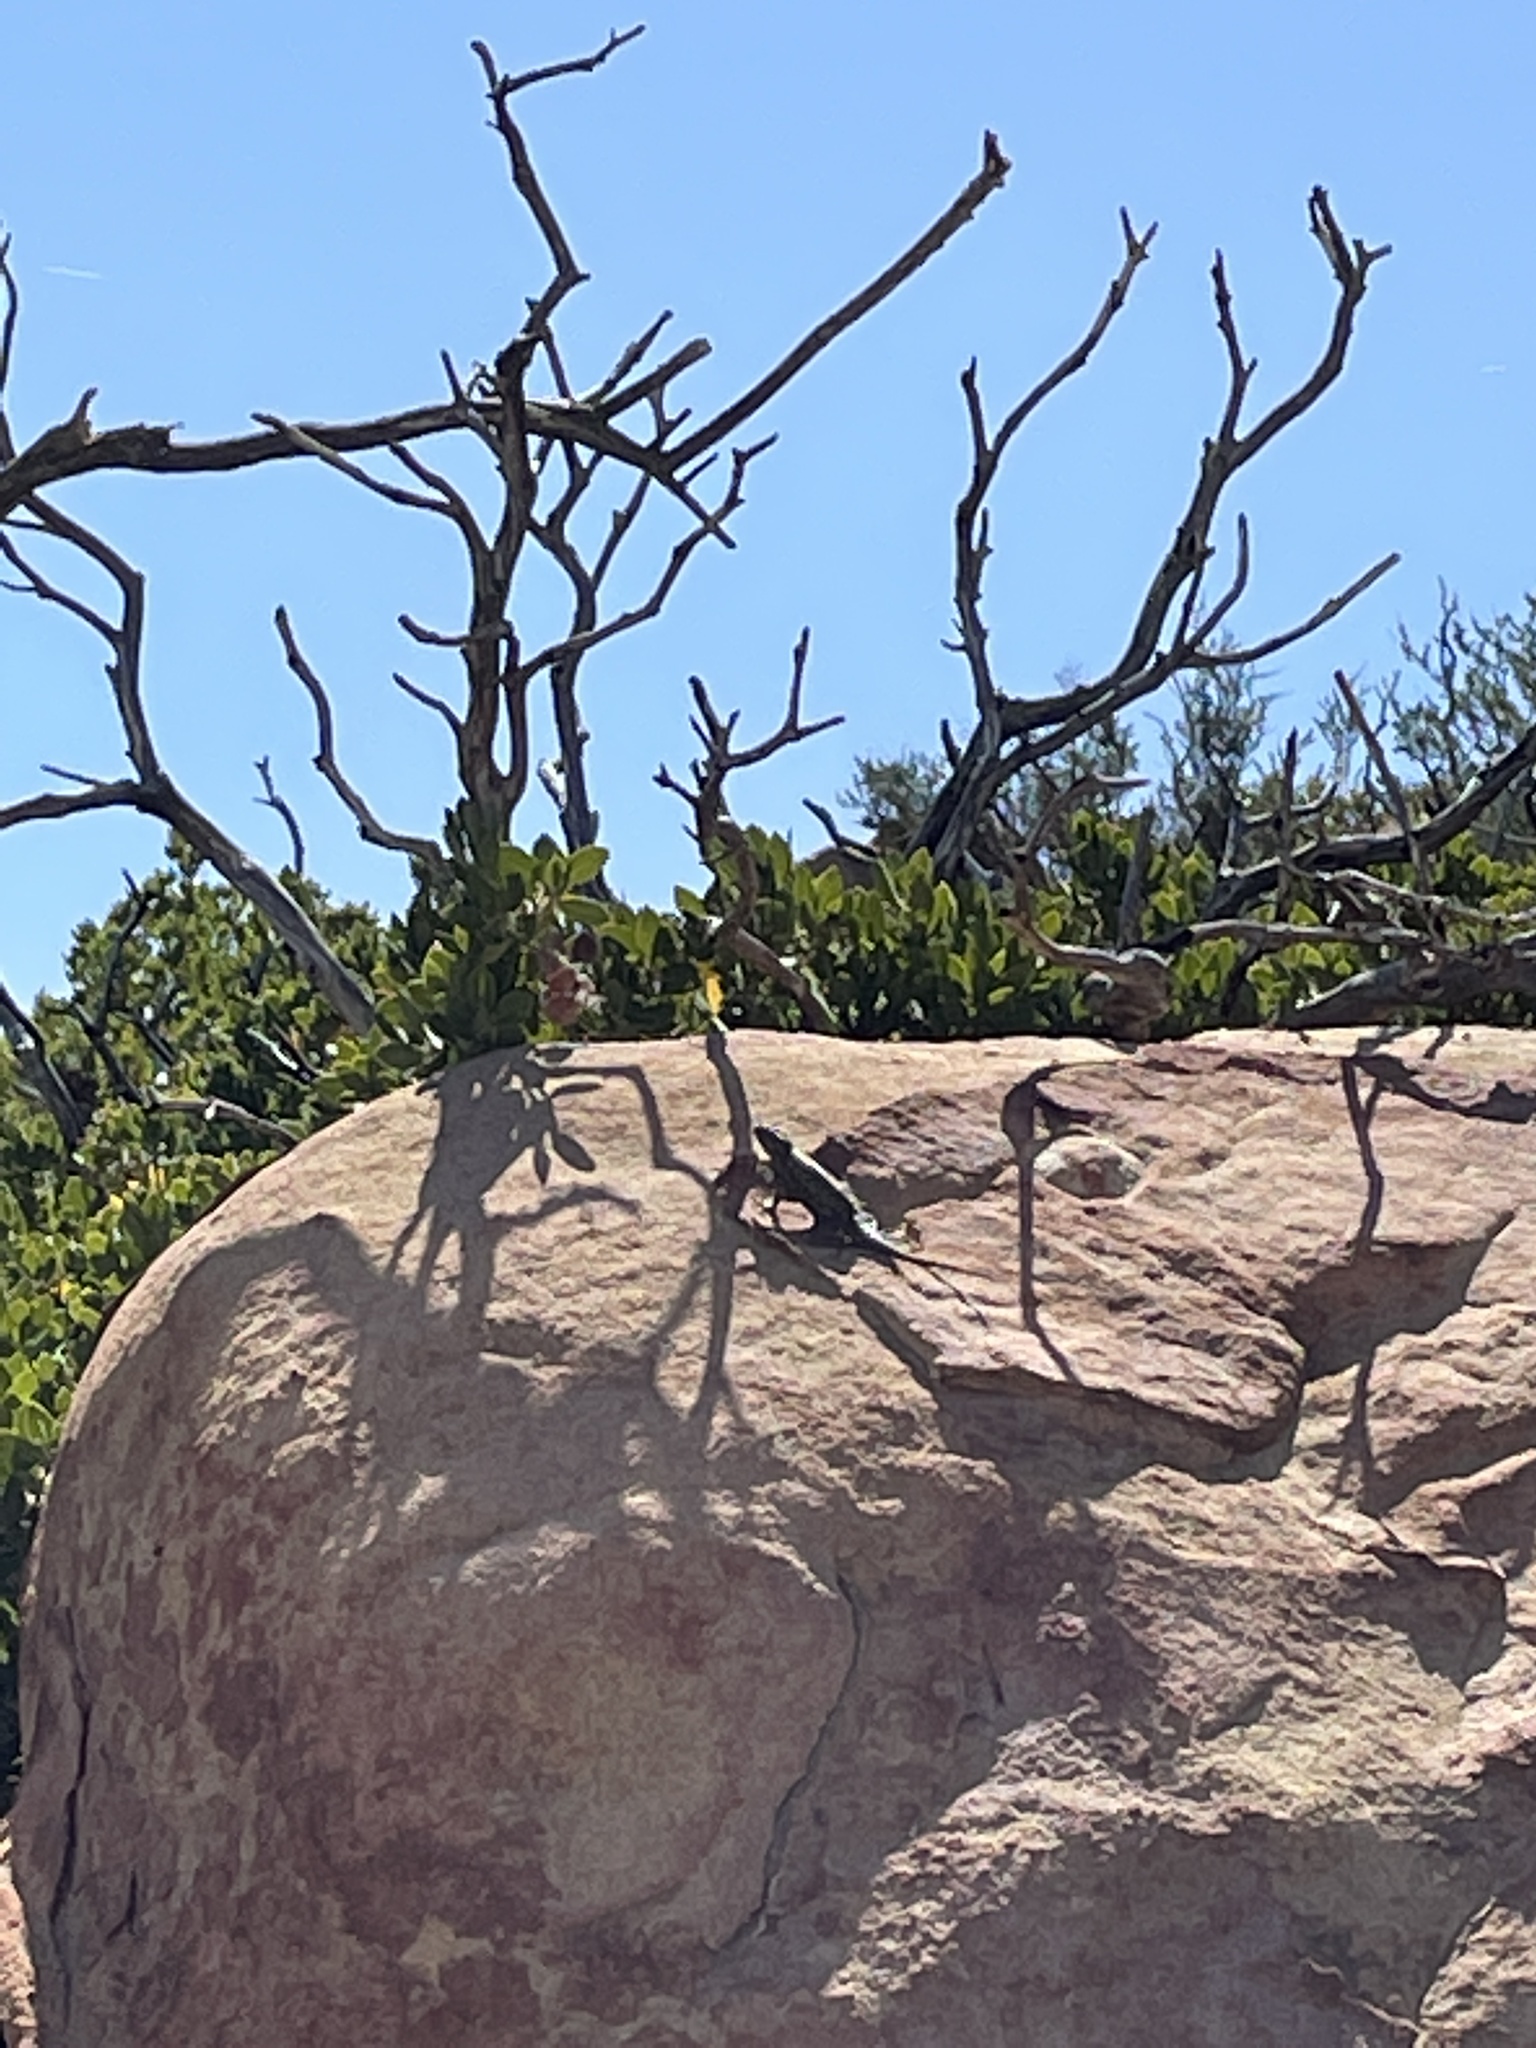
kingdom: Animalia
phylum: Chordata
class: Squamata
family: Phrynosomatidae
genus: Sceloporus
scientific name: Sceloporus occidentalis
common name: Western fence lizard
